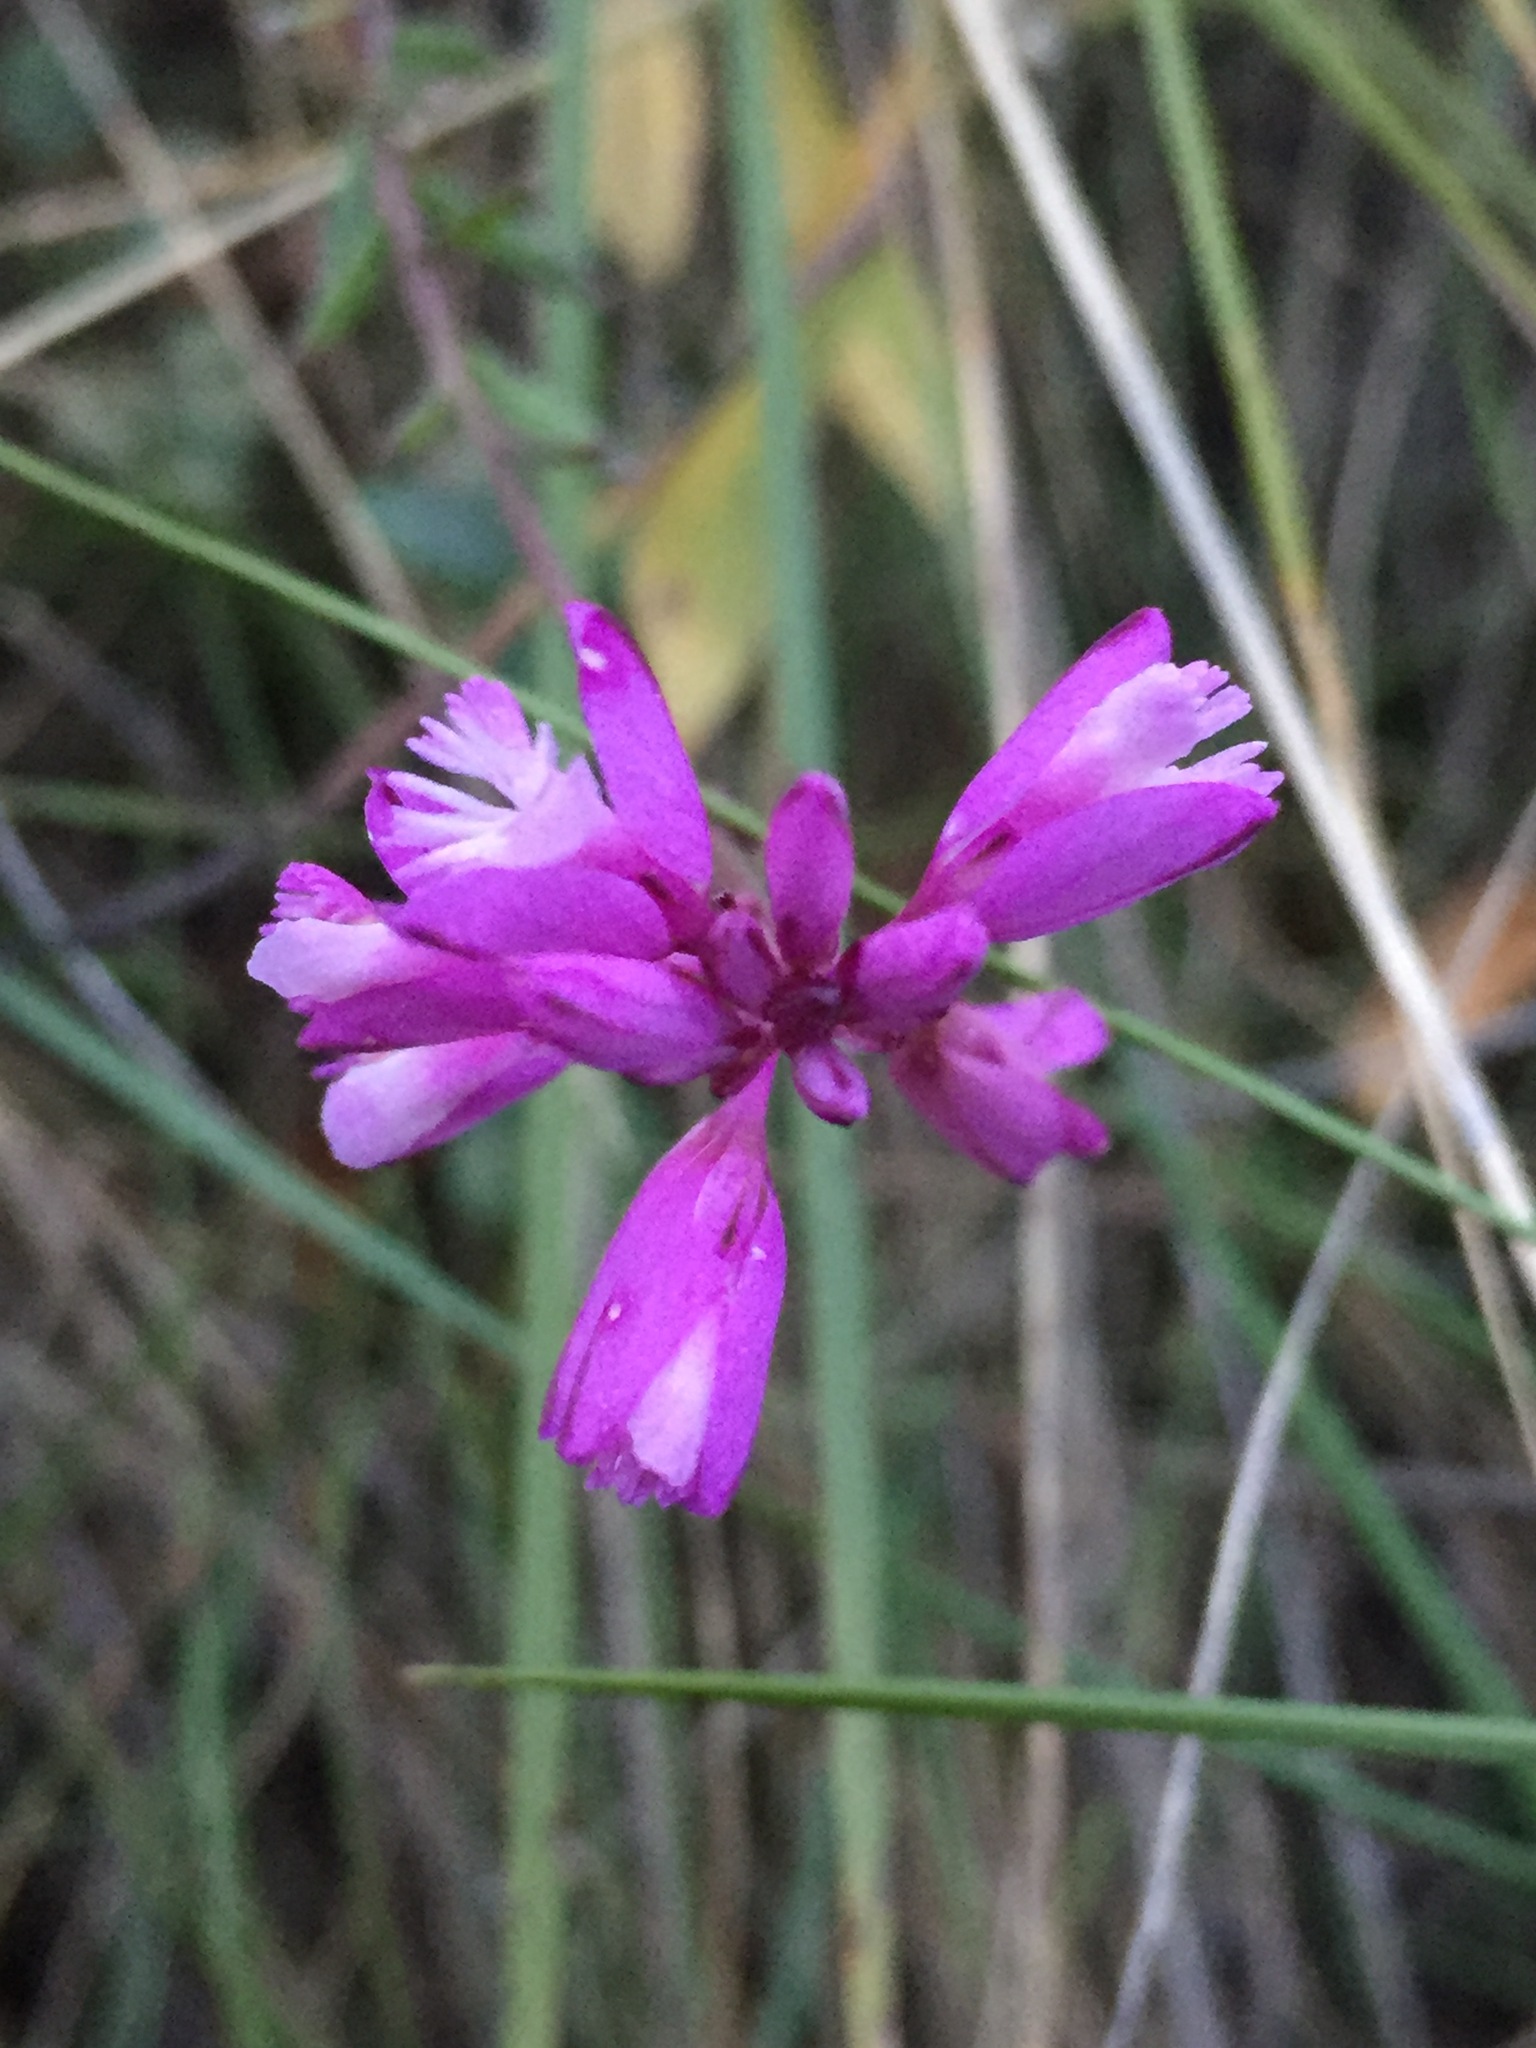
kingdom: Plantae
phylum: Tracheophyta
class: Magnoliopsida
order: Fabales
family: Polygalaceae
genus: Polygala
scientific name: Polygala nicaeensis
